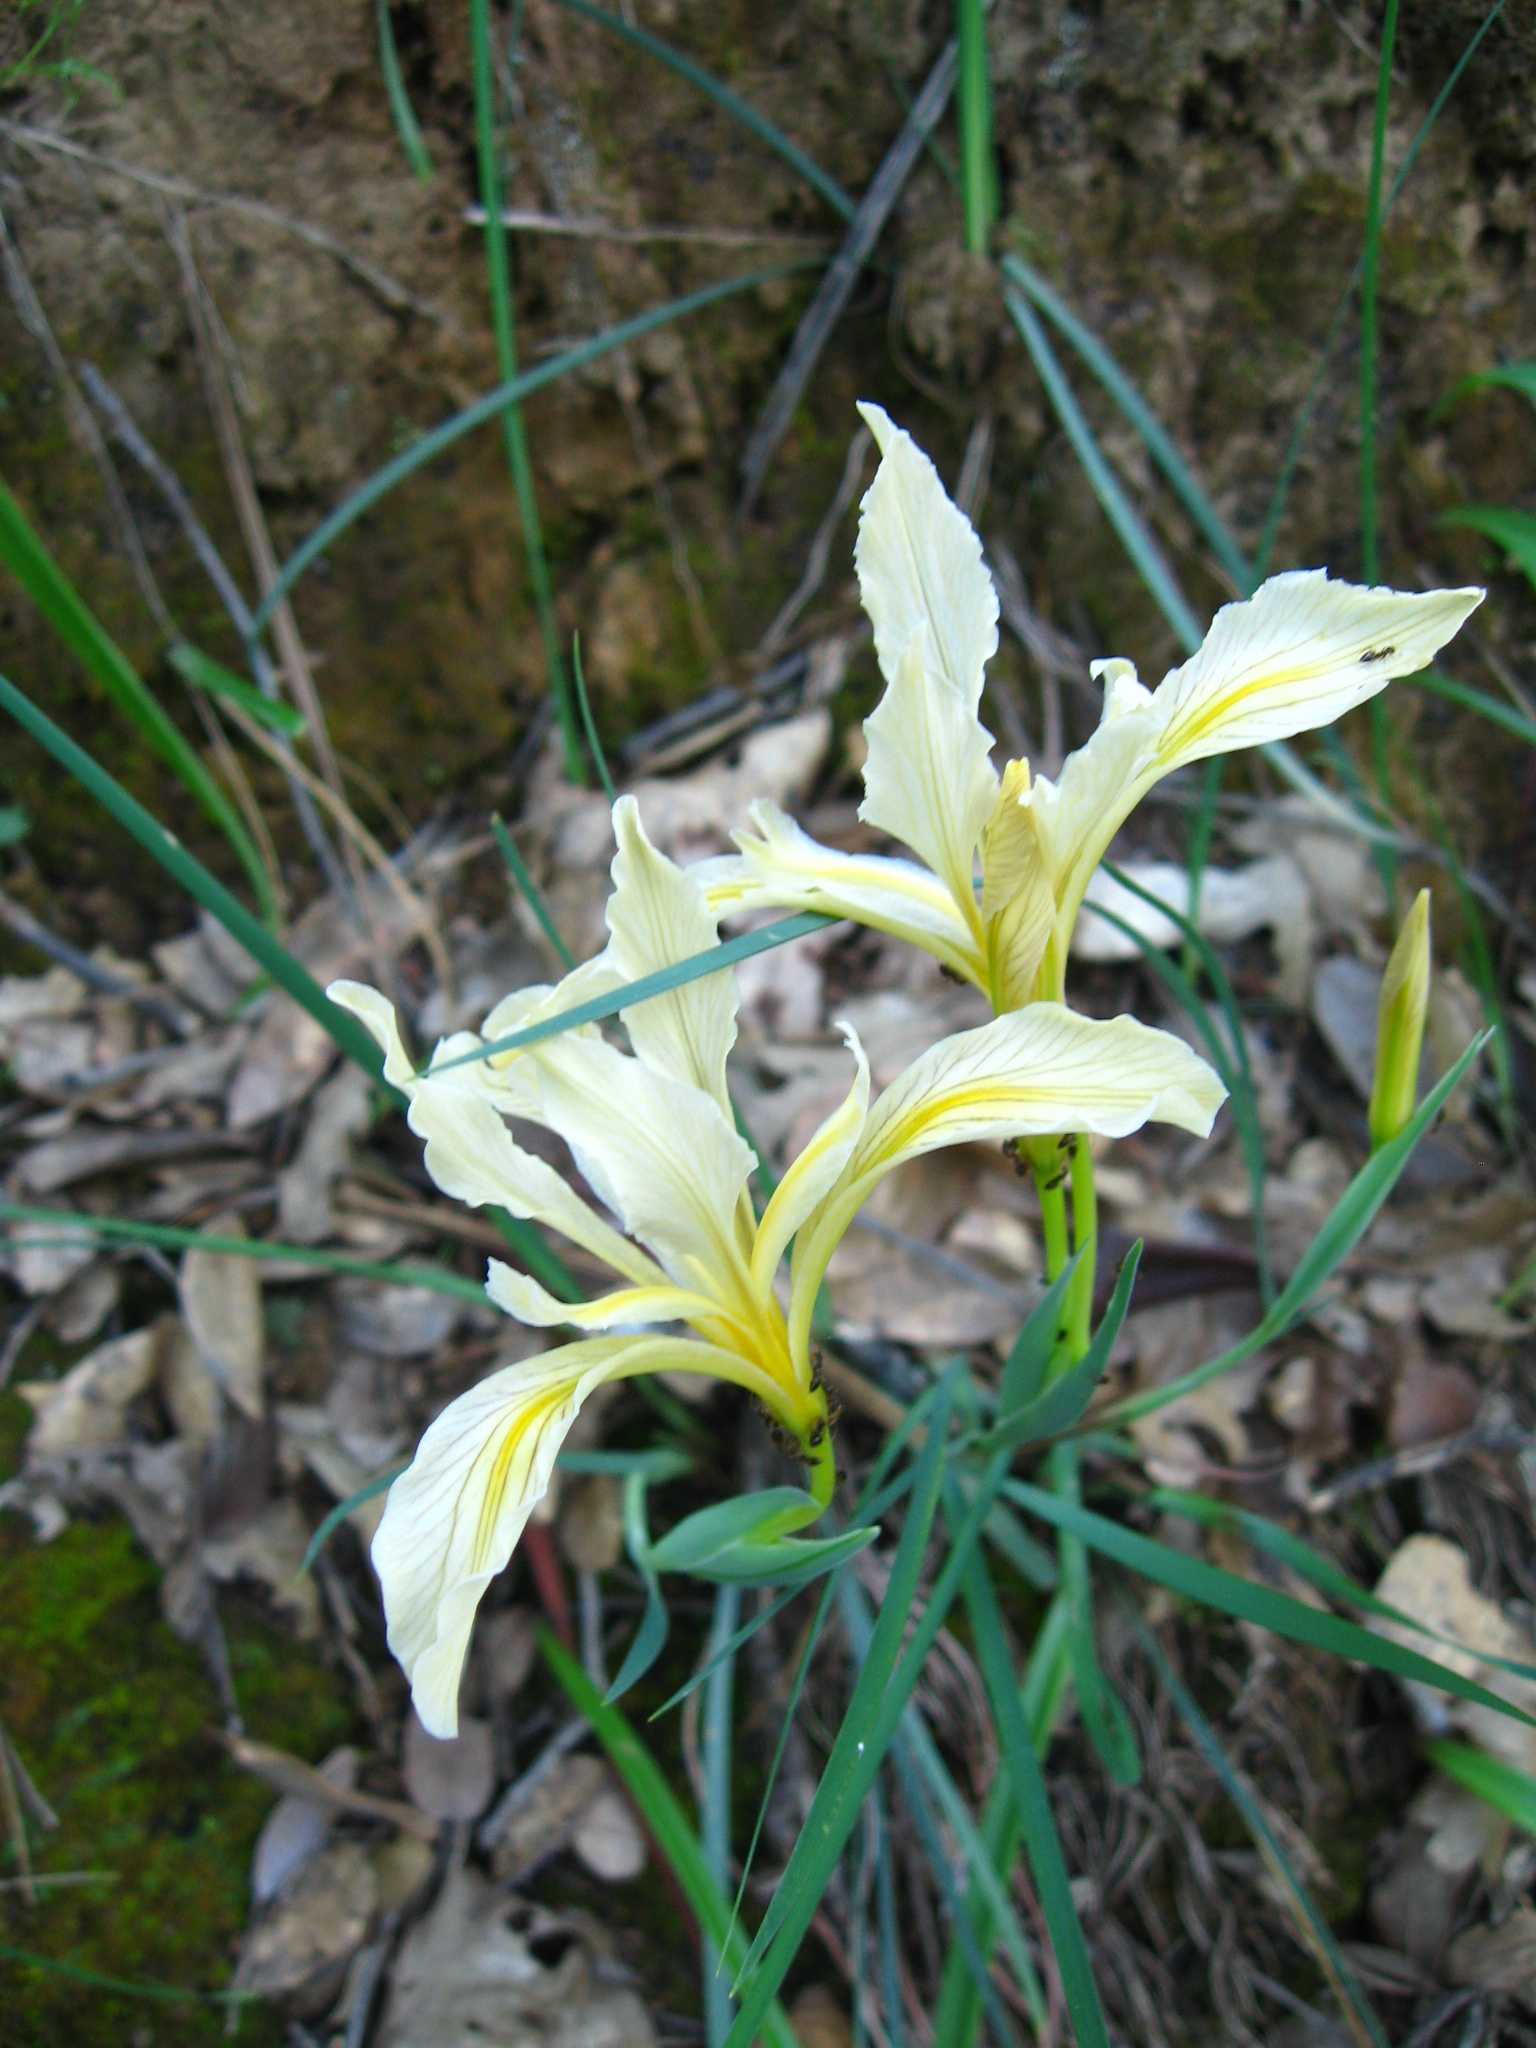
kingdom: Plantae
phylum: Tracheophyta
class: Liliopsida
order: Asparagales
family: Iridaceae
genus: Iris
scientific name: Iris macrosiphon
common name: Ground iris
